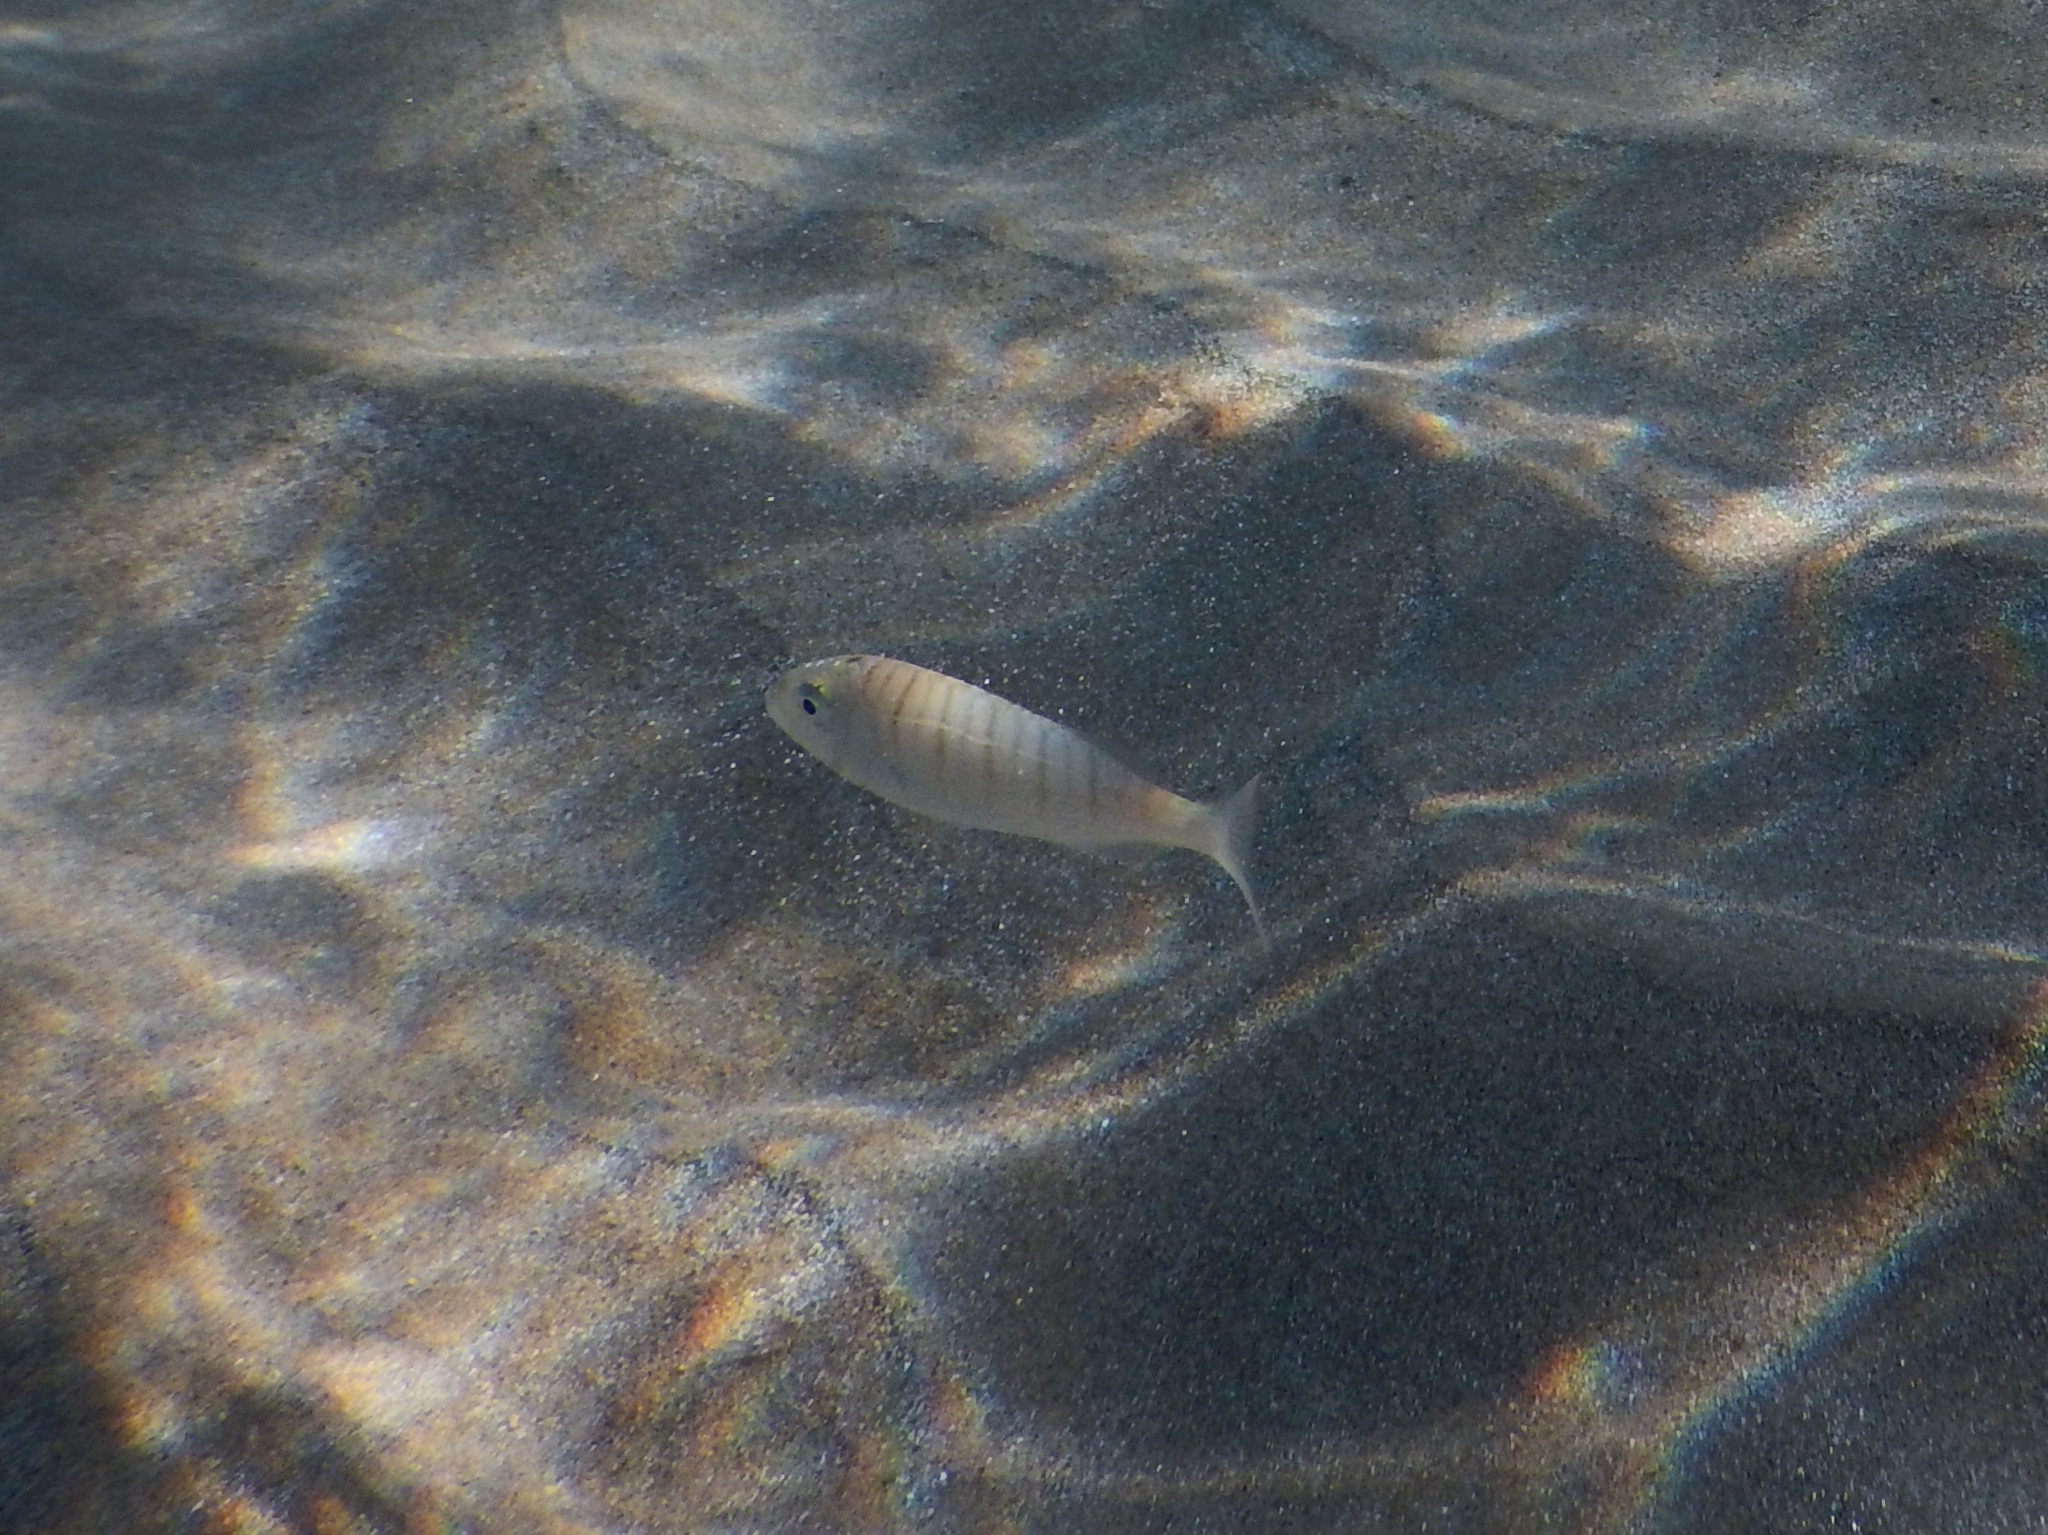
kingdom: Animalia
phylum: Chordata
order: Perciformes
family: Sparidae
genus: Lithognathus
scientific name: Lithognathus mormyrus
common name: Sand steenbras
